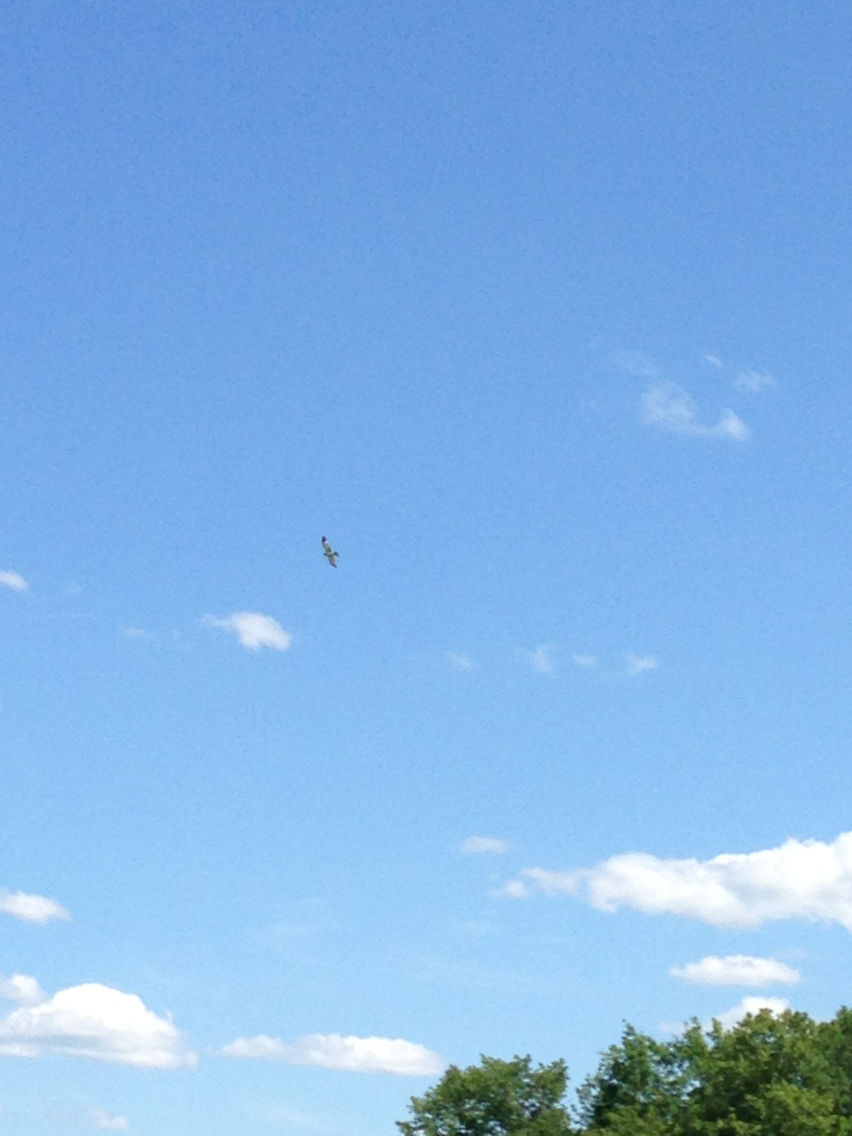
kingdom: Animalia
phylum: Chordata
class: Aves
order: Accipitriformes
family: Accipitridae
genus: Circus
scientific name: Circus cyaneus
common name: Hen harrier
